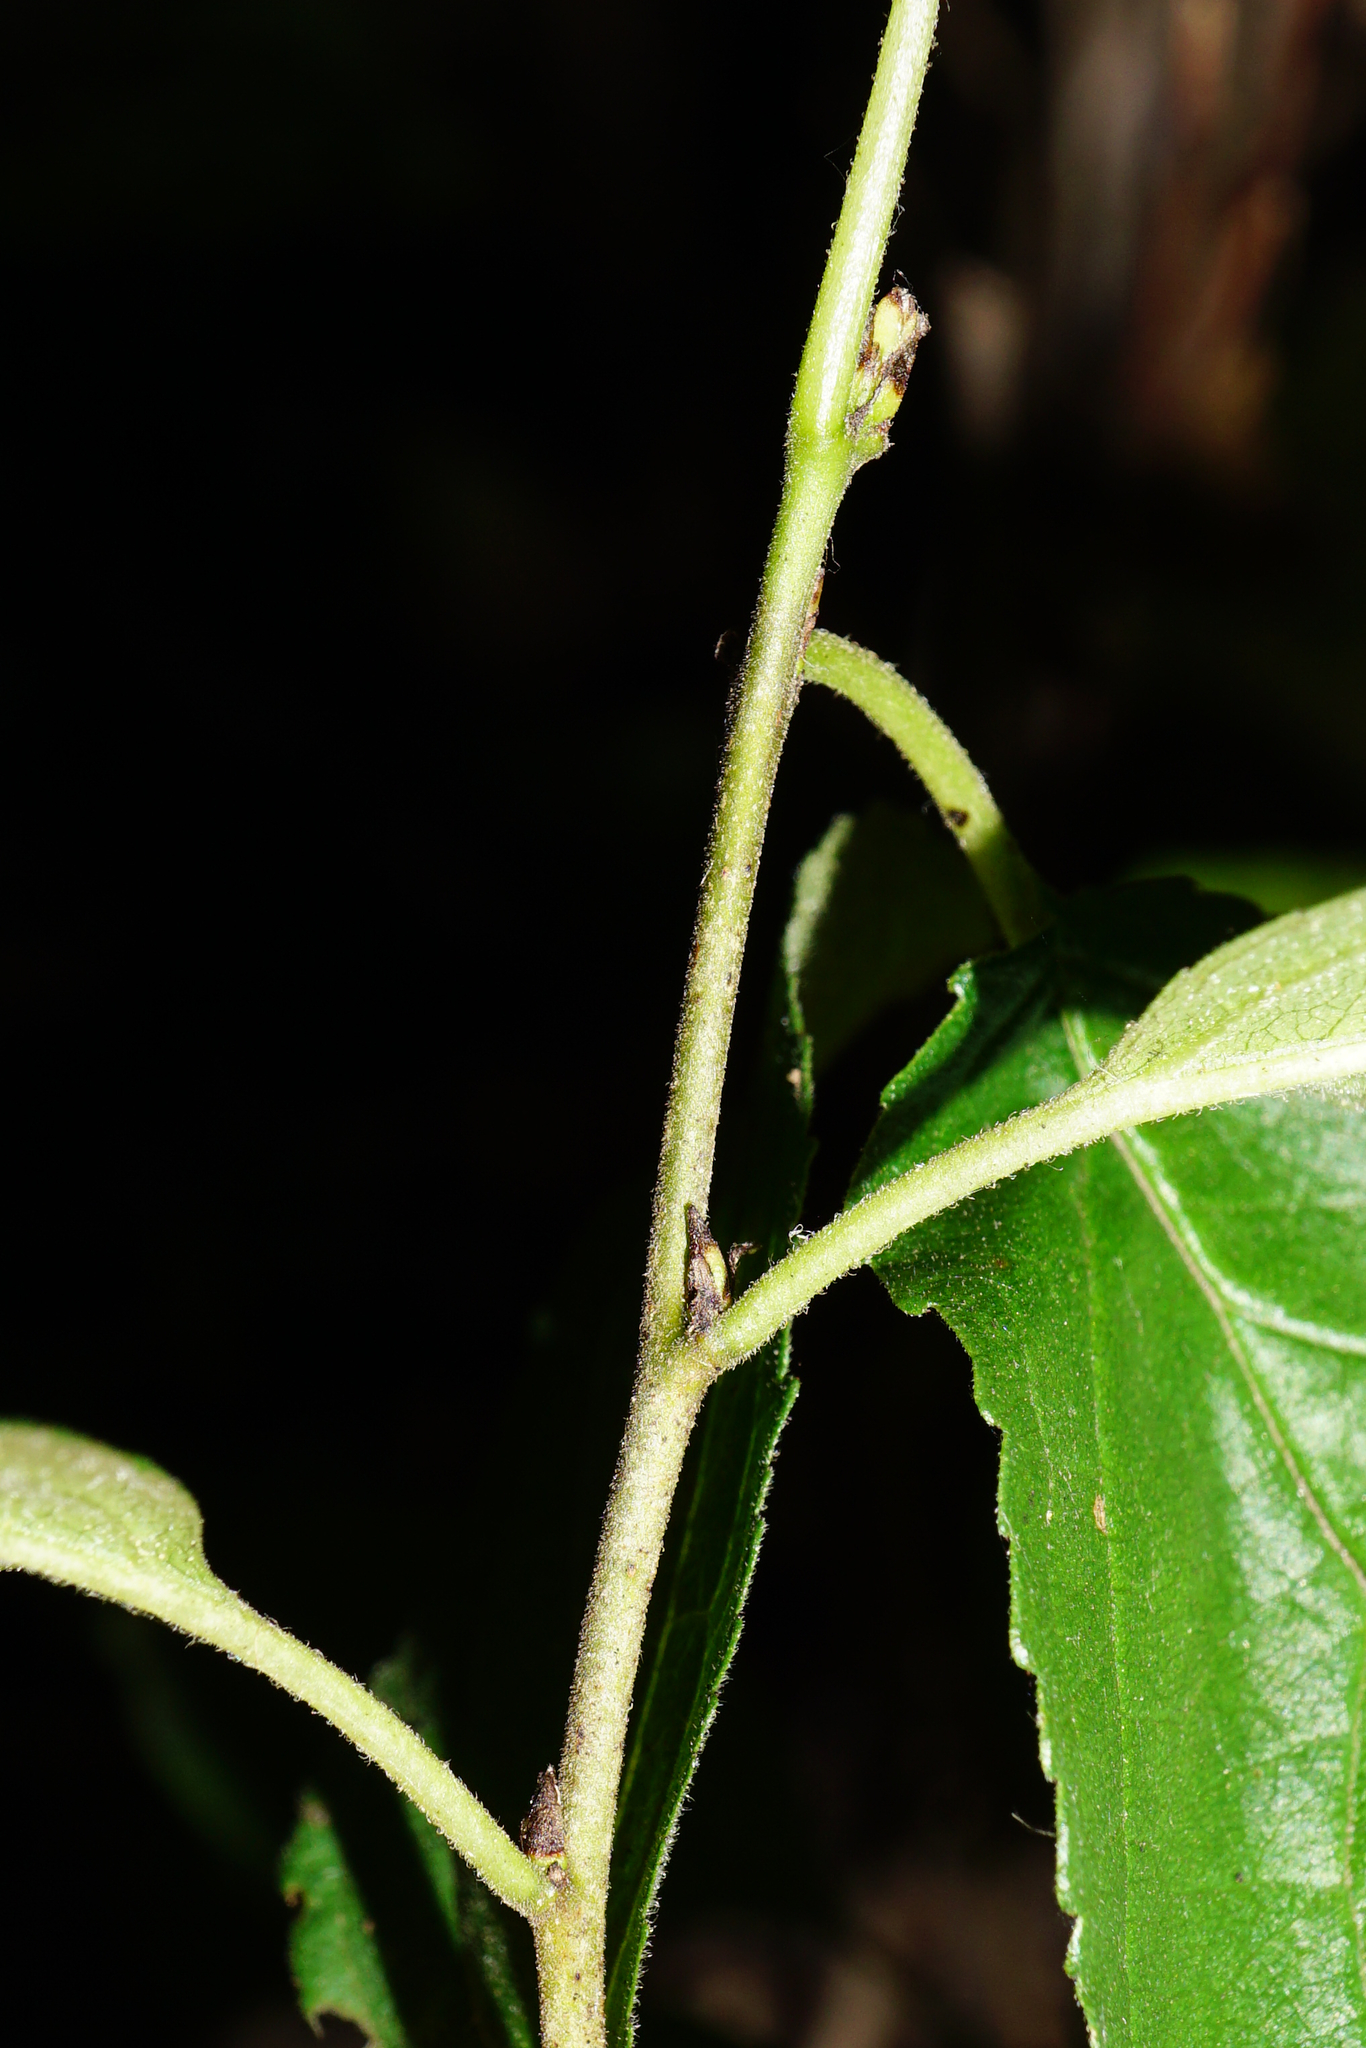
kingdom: Plantae
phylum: Tracheophyta
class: Magnoliopsida
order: Rosales
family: Rhamnaceae
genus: Rhamnus
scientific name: Rhamnus cathartica
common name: Common buckthorn
